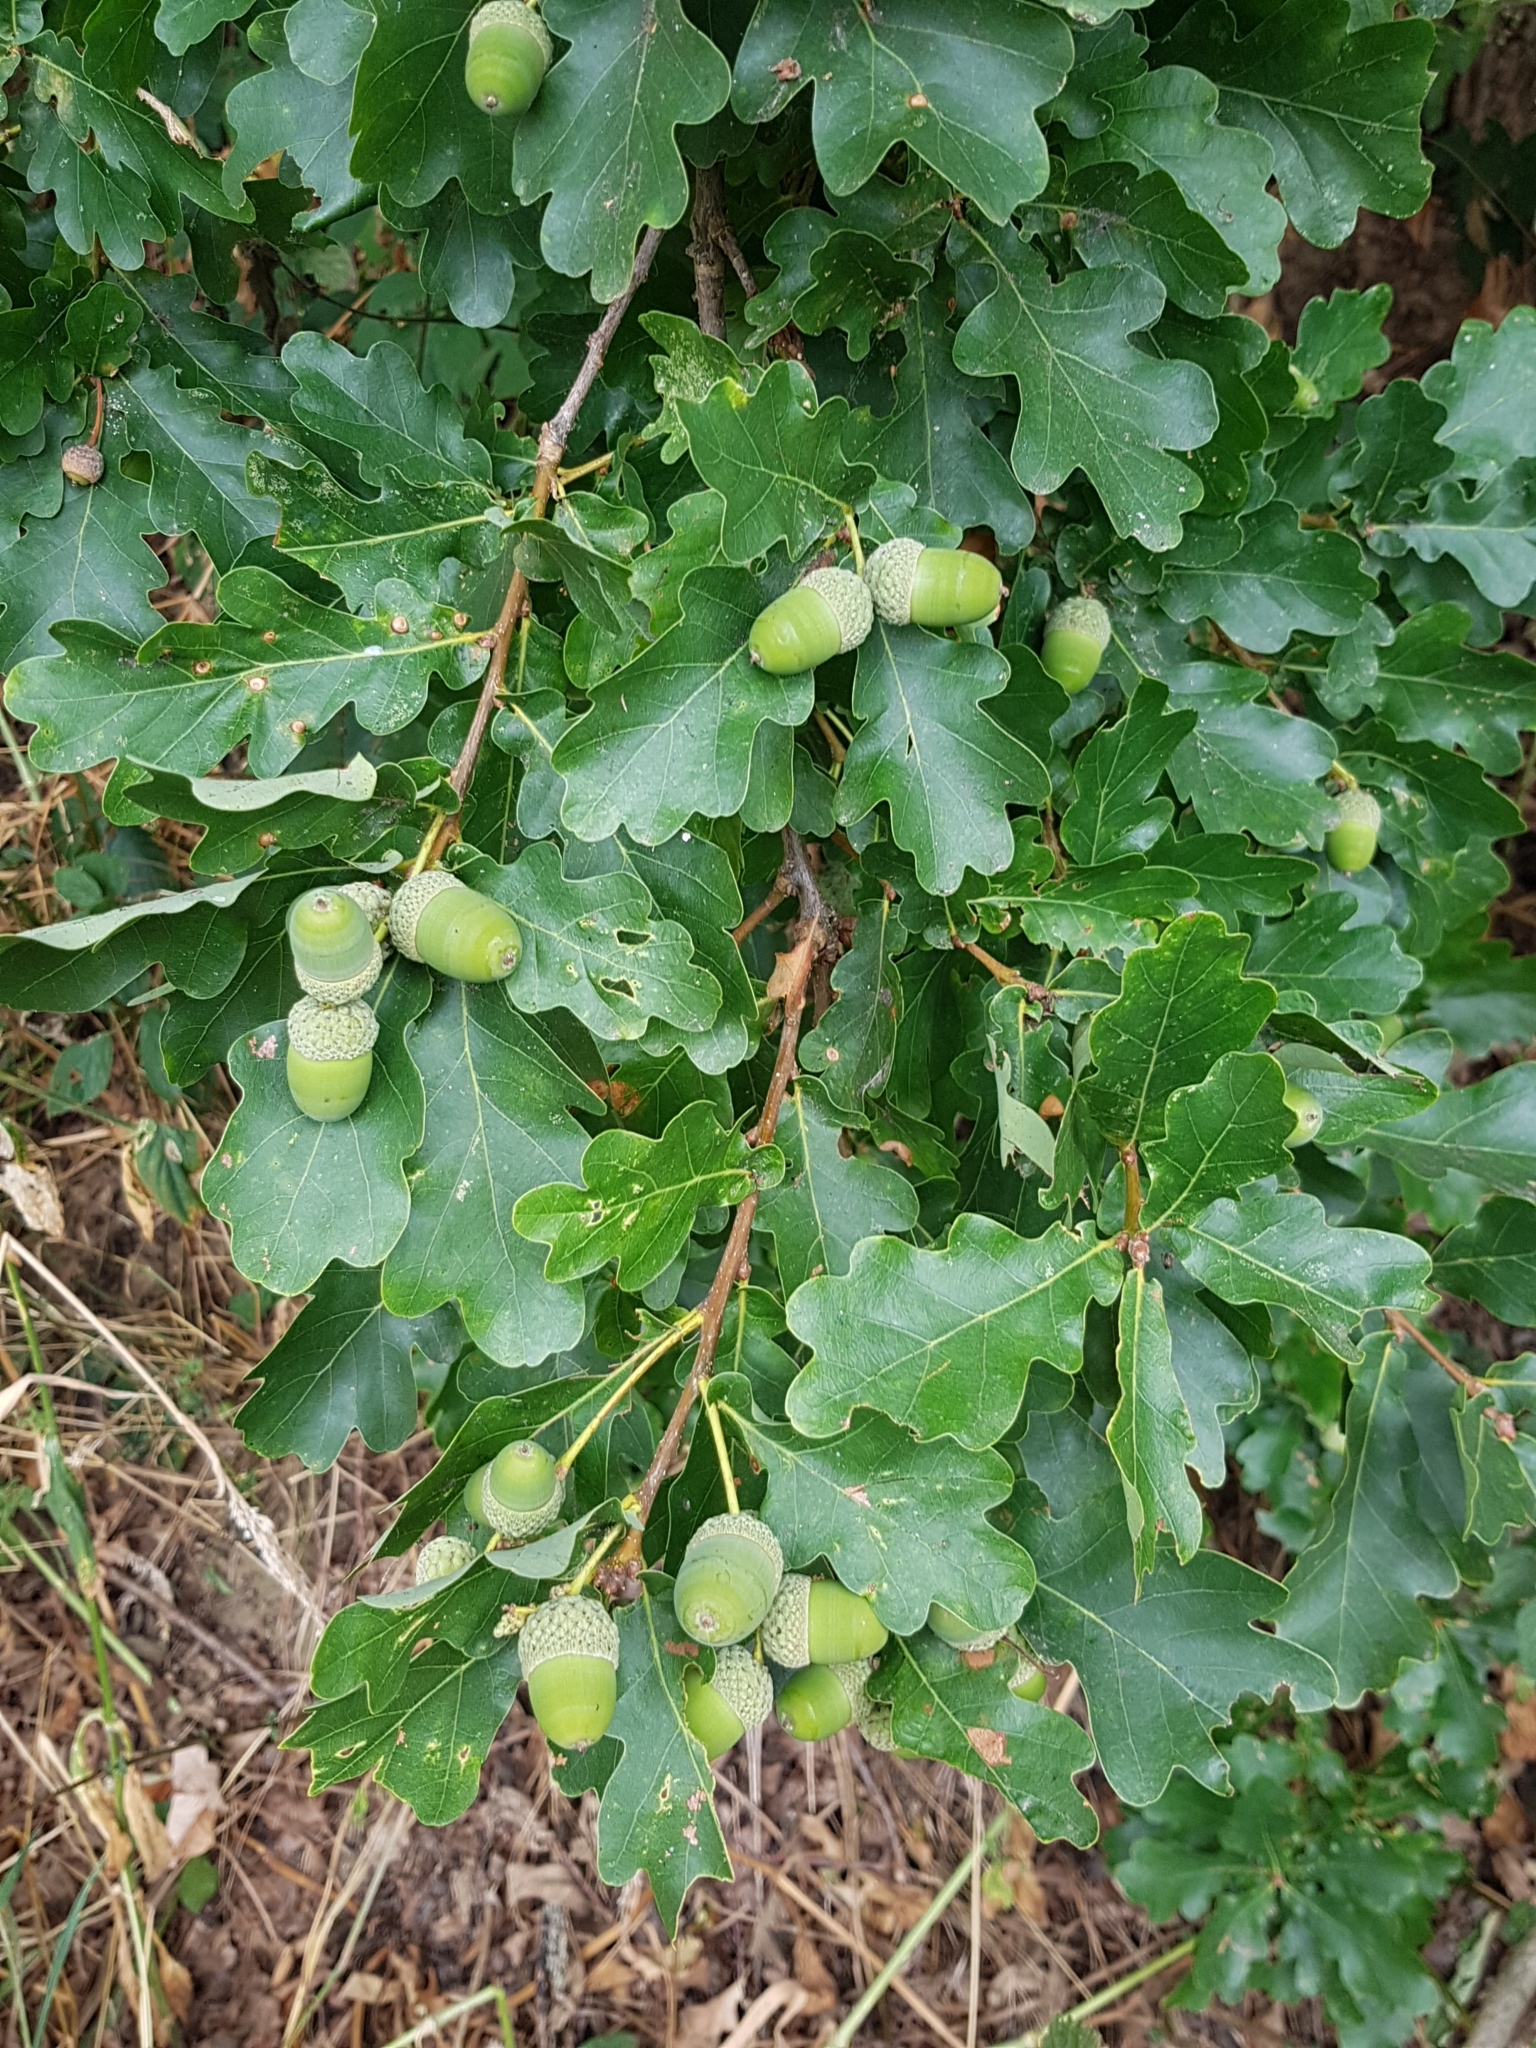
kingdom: Plantae
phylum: Tracheophyta
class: Magnoliopsida
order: Fagales
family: Fagaceae
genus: Quercus
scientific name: Quercus robur
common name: Pedunculate oak
